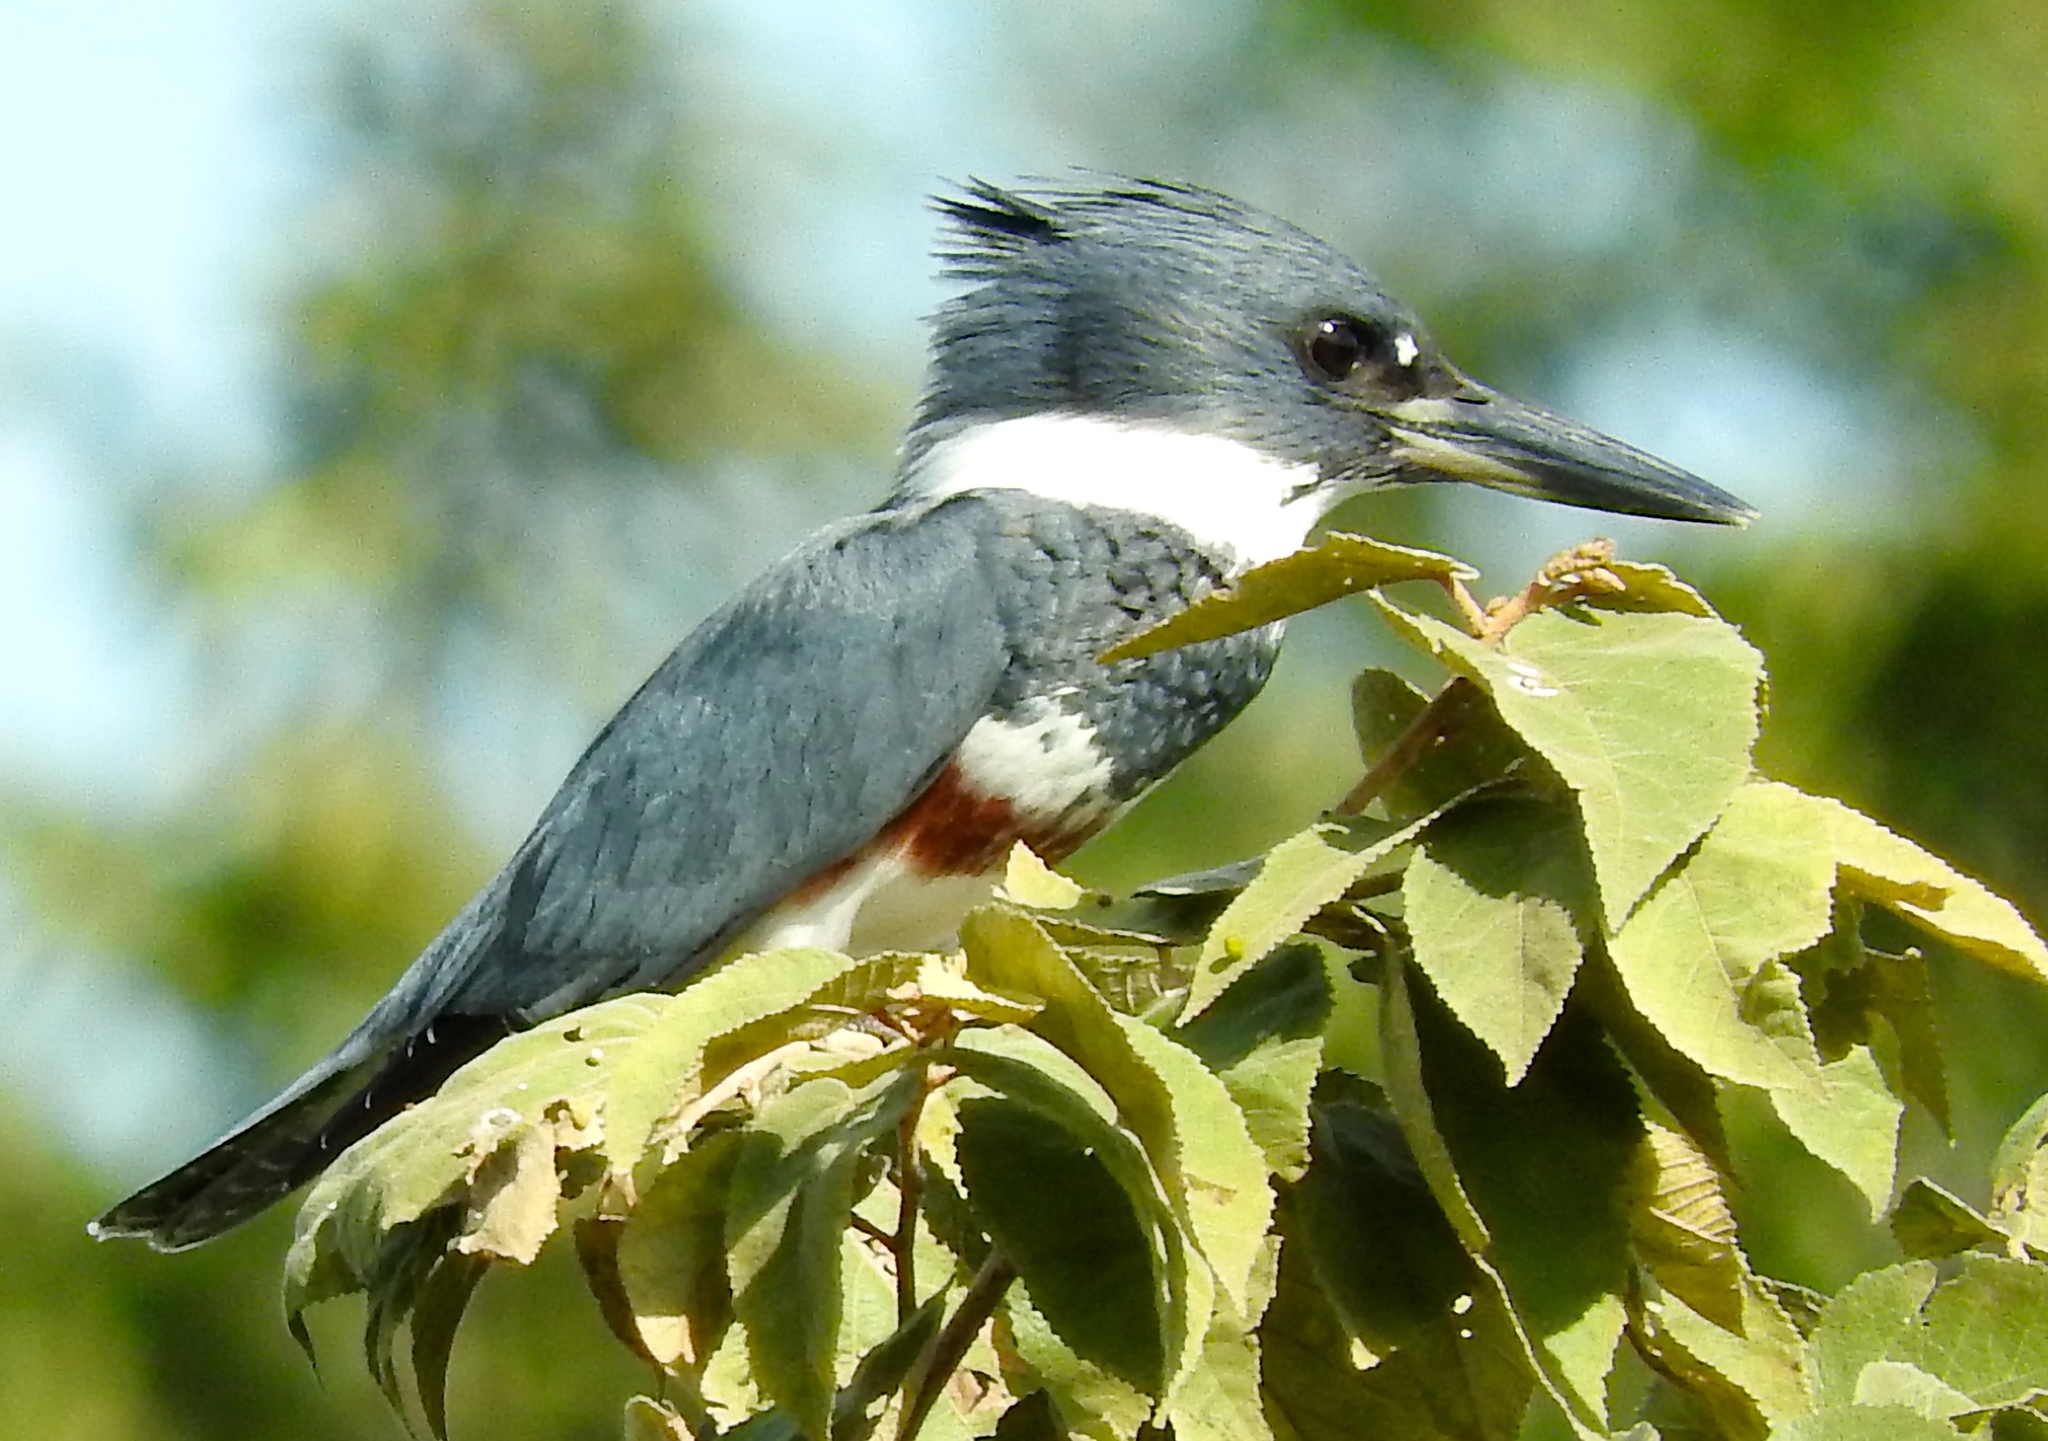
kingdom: Animalia
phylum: Chordata
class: Aves
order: Coraciiformes
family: Alcedinidae
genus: Megaceryle
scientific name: Megaceryle alcyon
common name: Belted kingfisher
